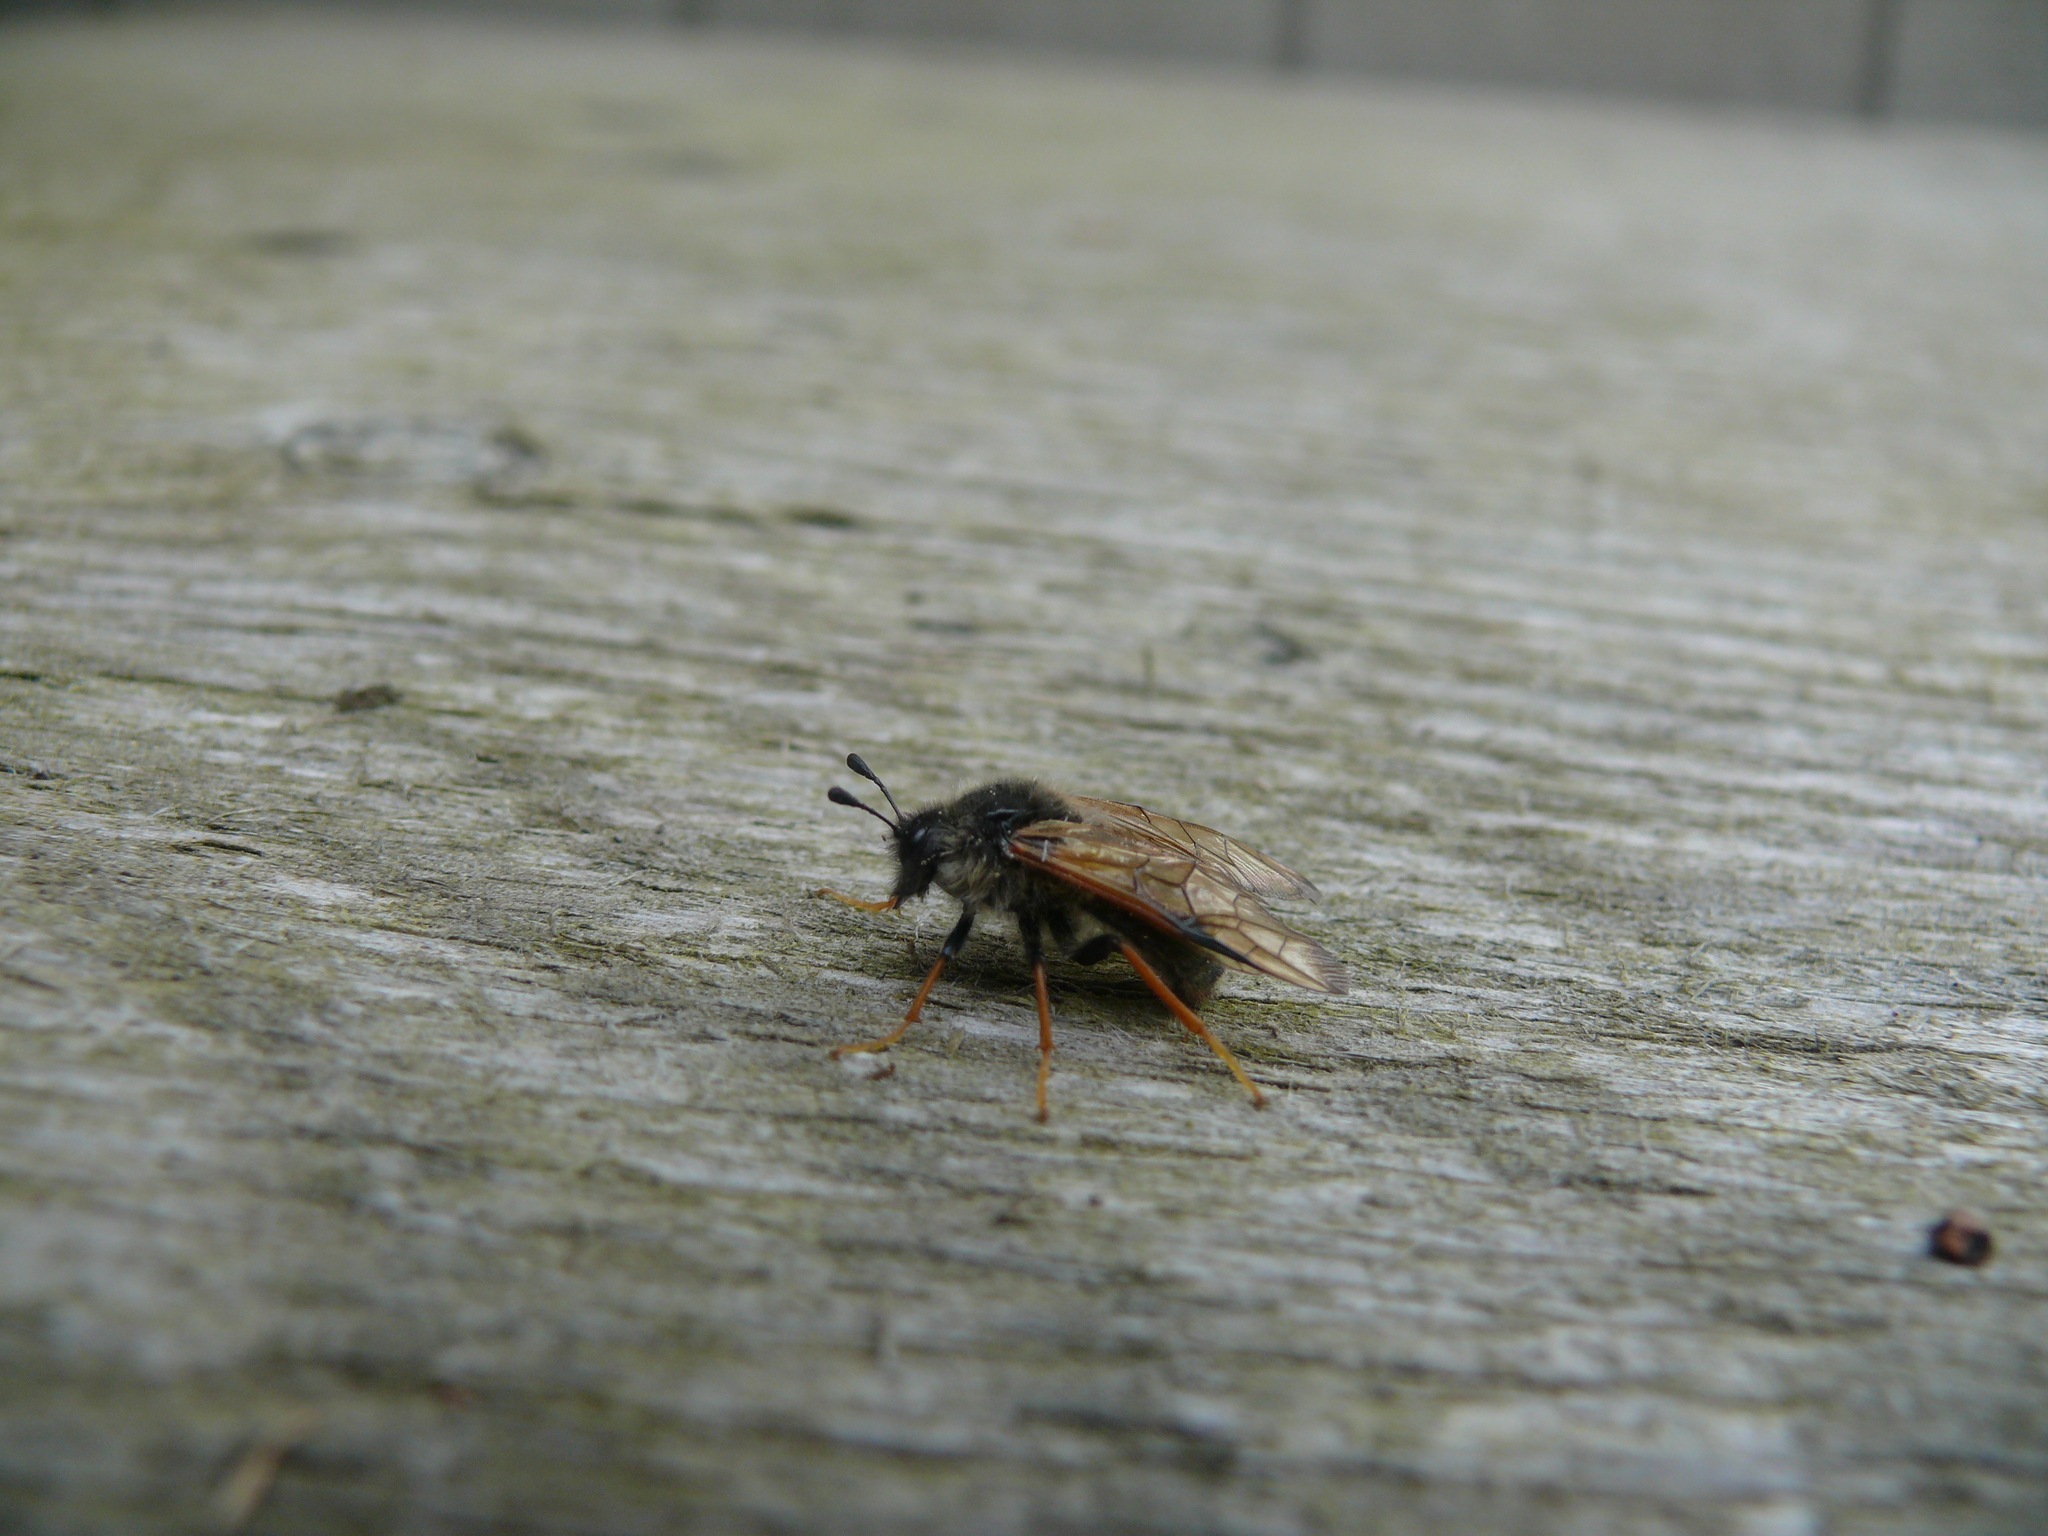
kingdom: Animalia
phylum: Arthropoda
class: Insecta
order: Hymenoptera
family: Cimbicidae
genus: Trichiosoma
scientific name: Trichiosoma triangulum
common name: Giant birch sawfly
